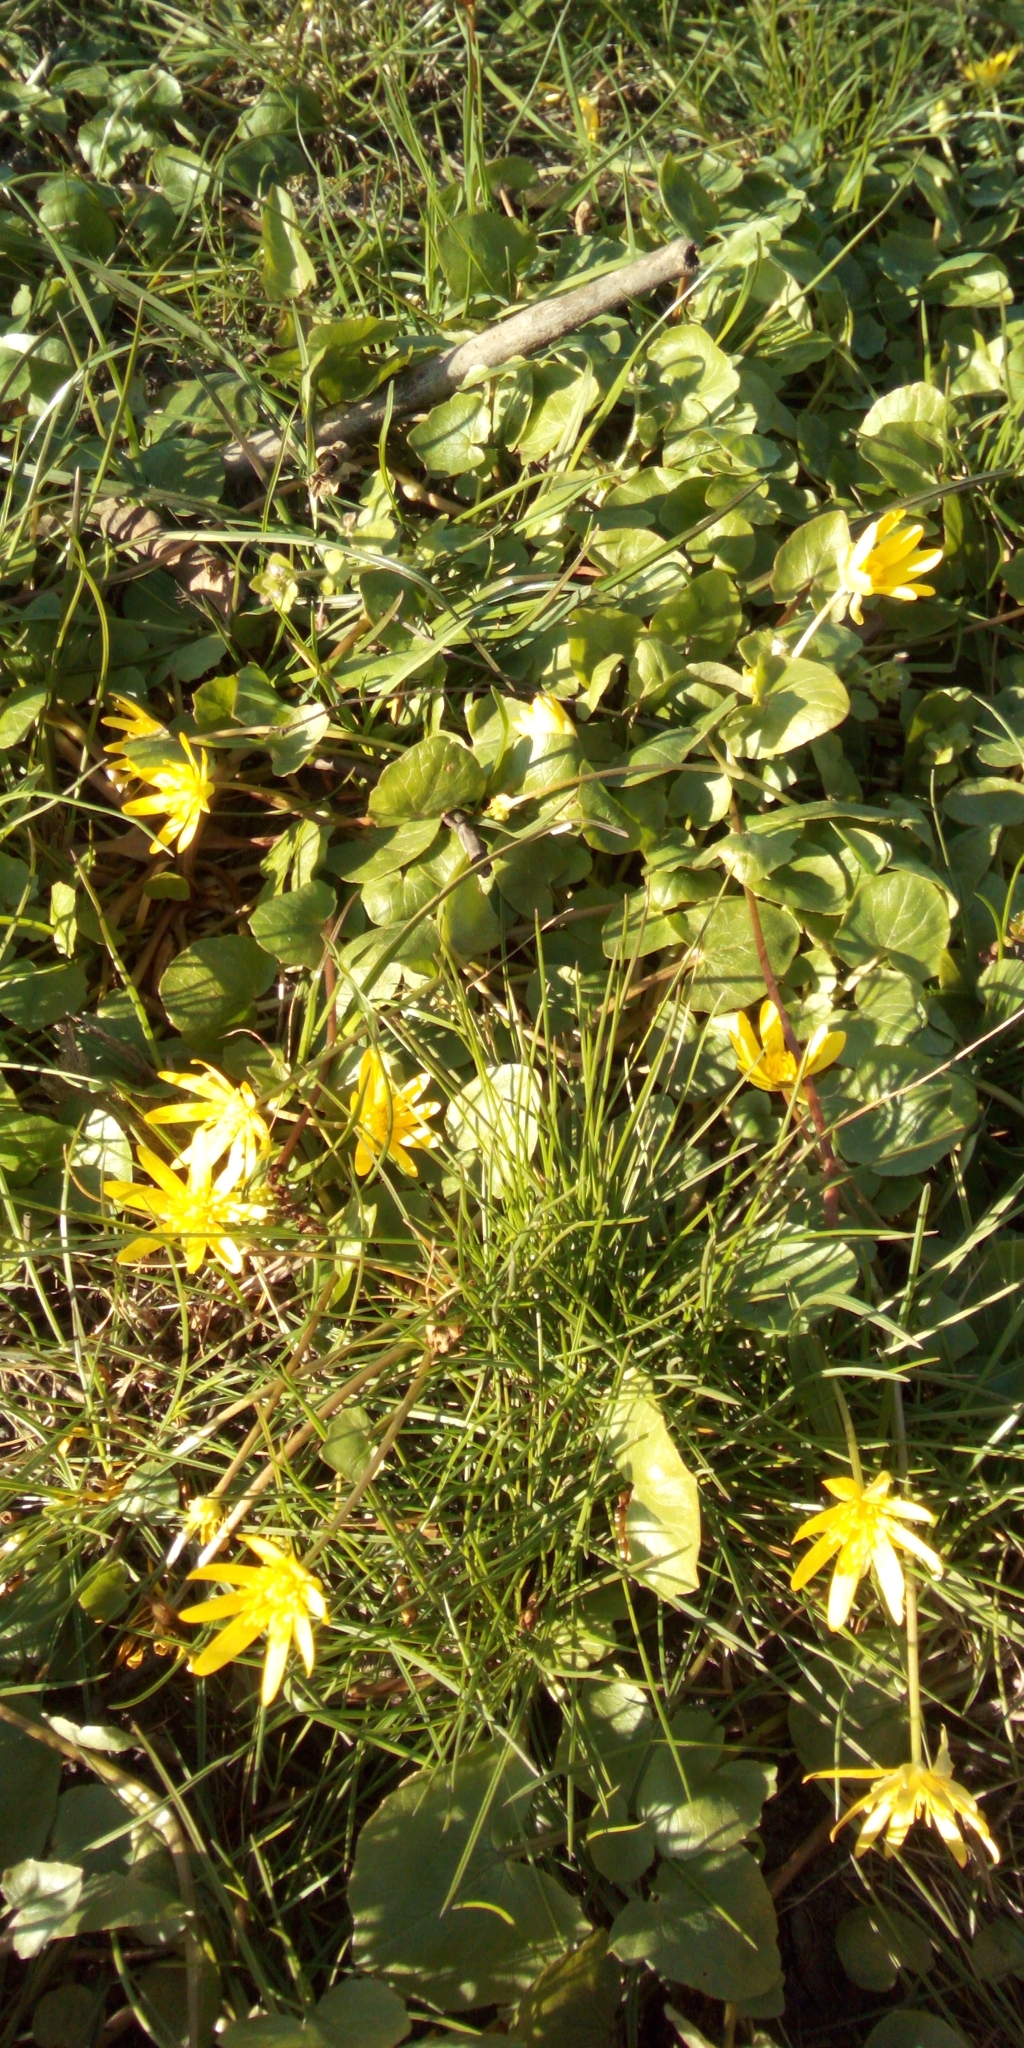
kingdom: Plantae
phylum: Tracheophyta
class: Magnoliopsida
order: Ranunculales
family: Ranunculaceae
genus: Ficaria
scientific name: Ficaria verna
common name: Lesser celandine
